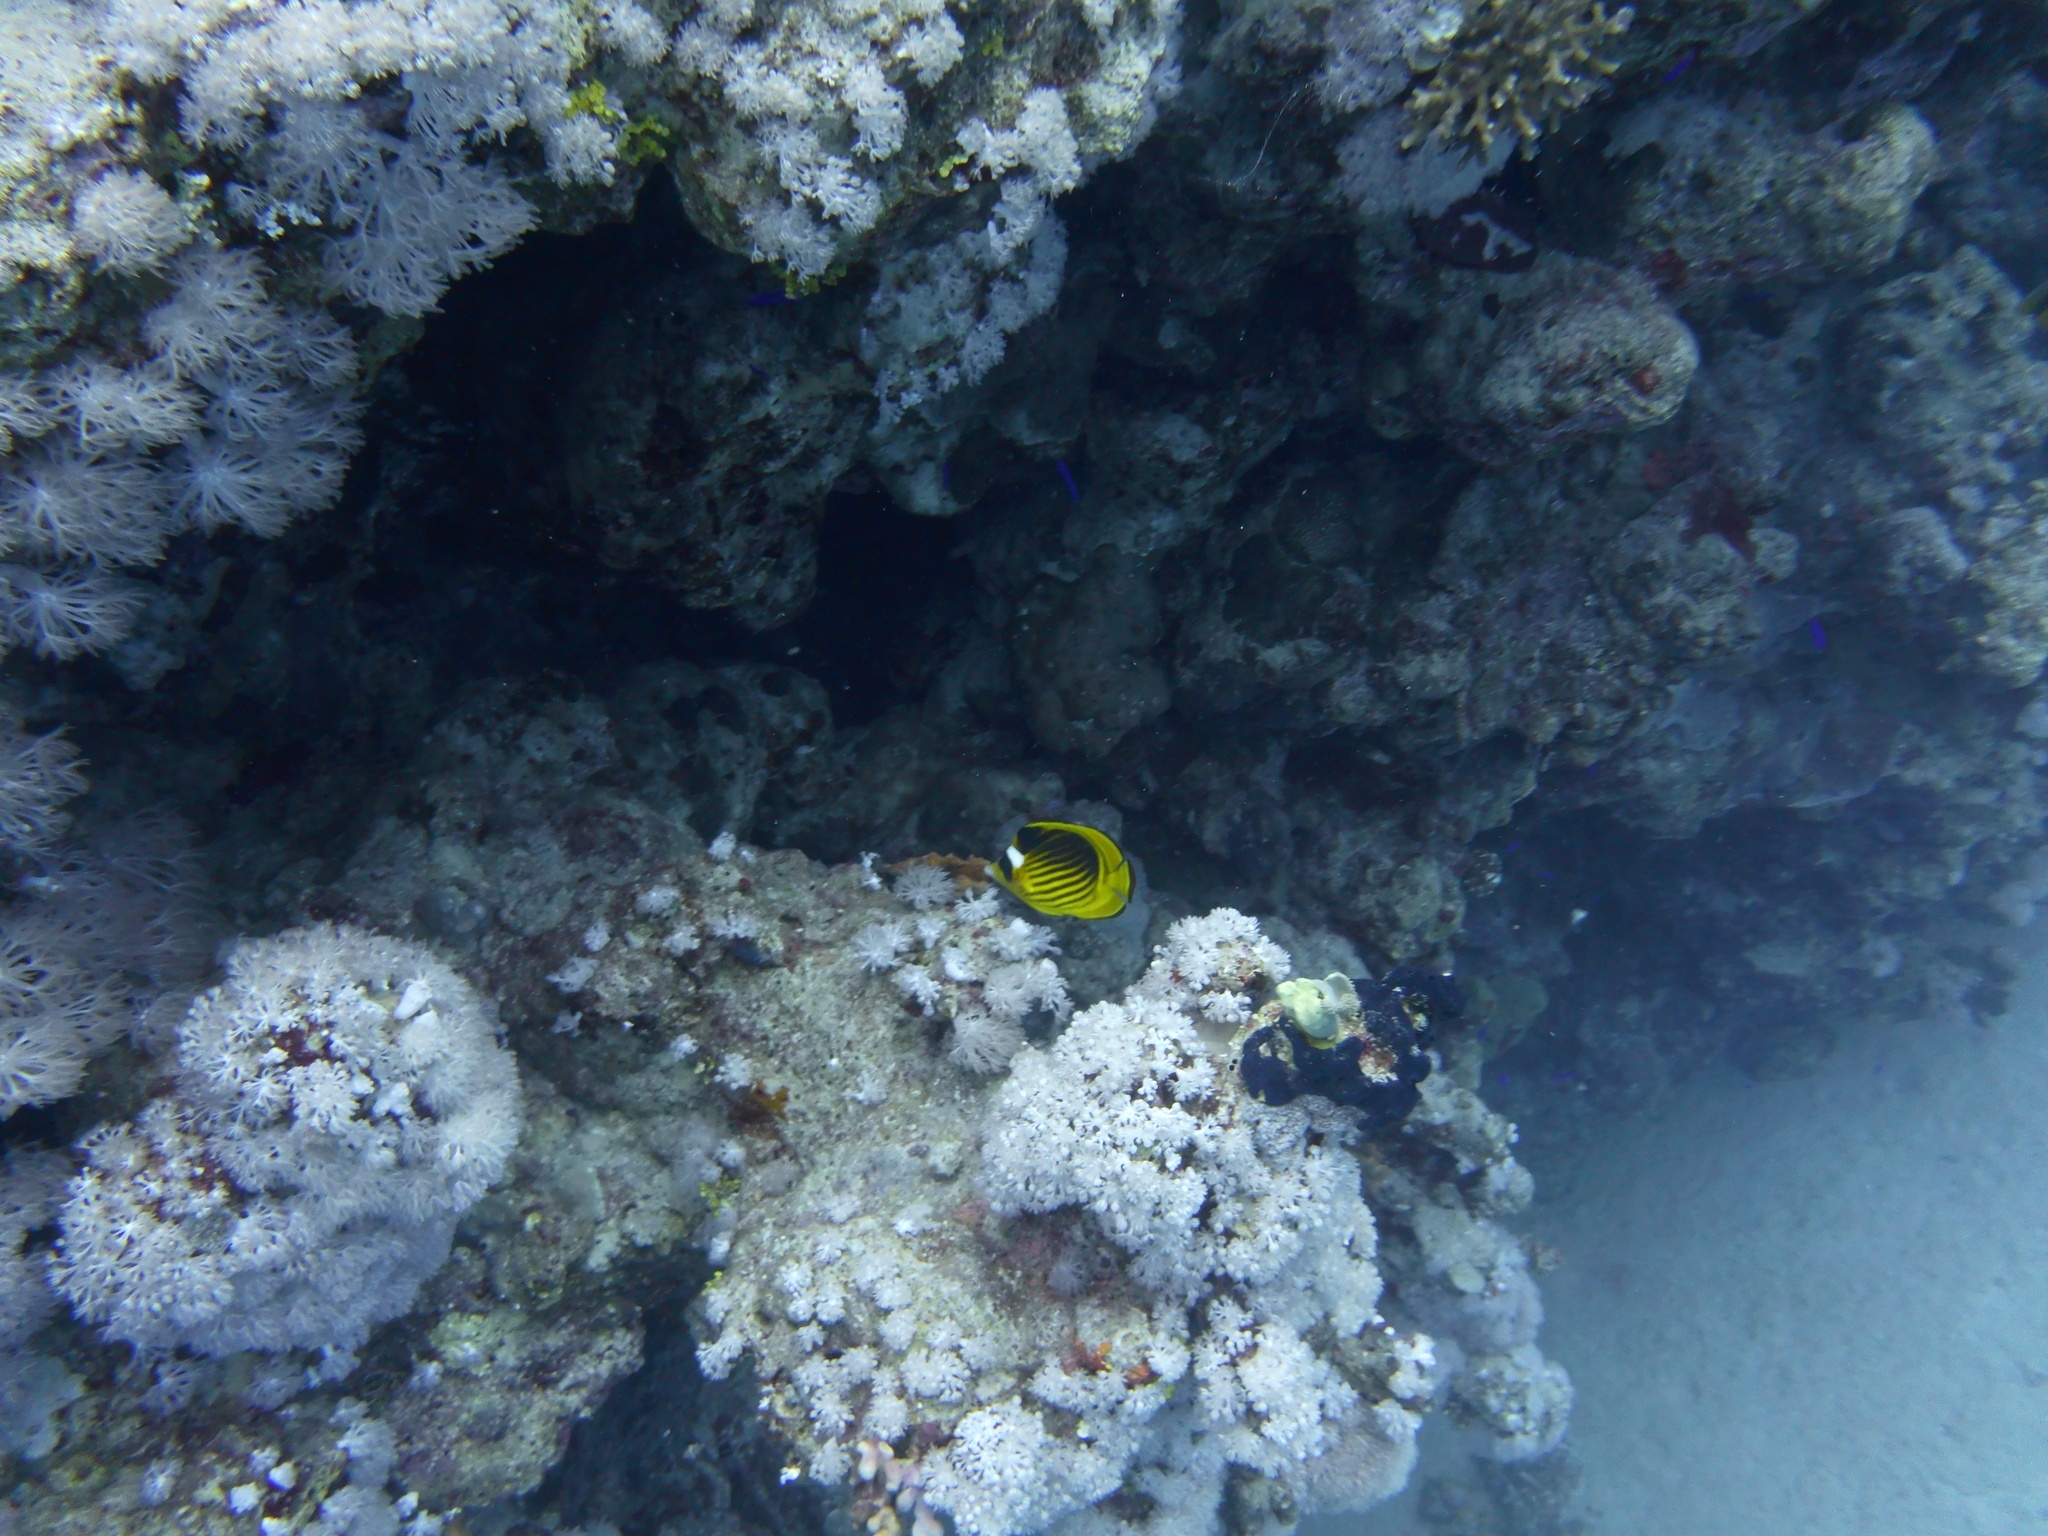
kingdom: Animalia
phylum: Chordata
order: Perciformes
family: Chaetodontidae
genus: Chaetodon
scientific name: Chaetodon fasciatus
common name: Diagonal butterflyfish
